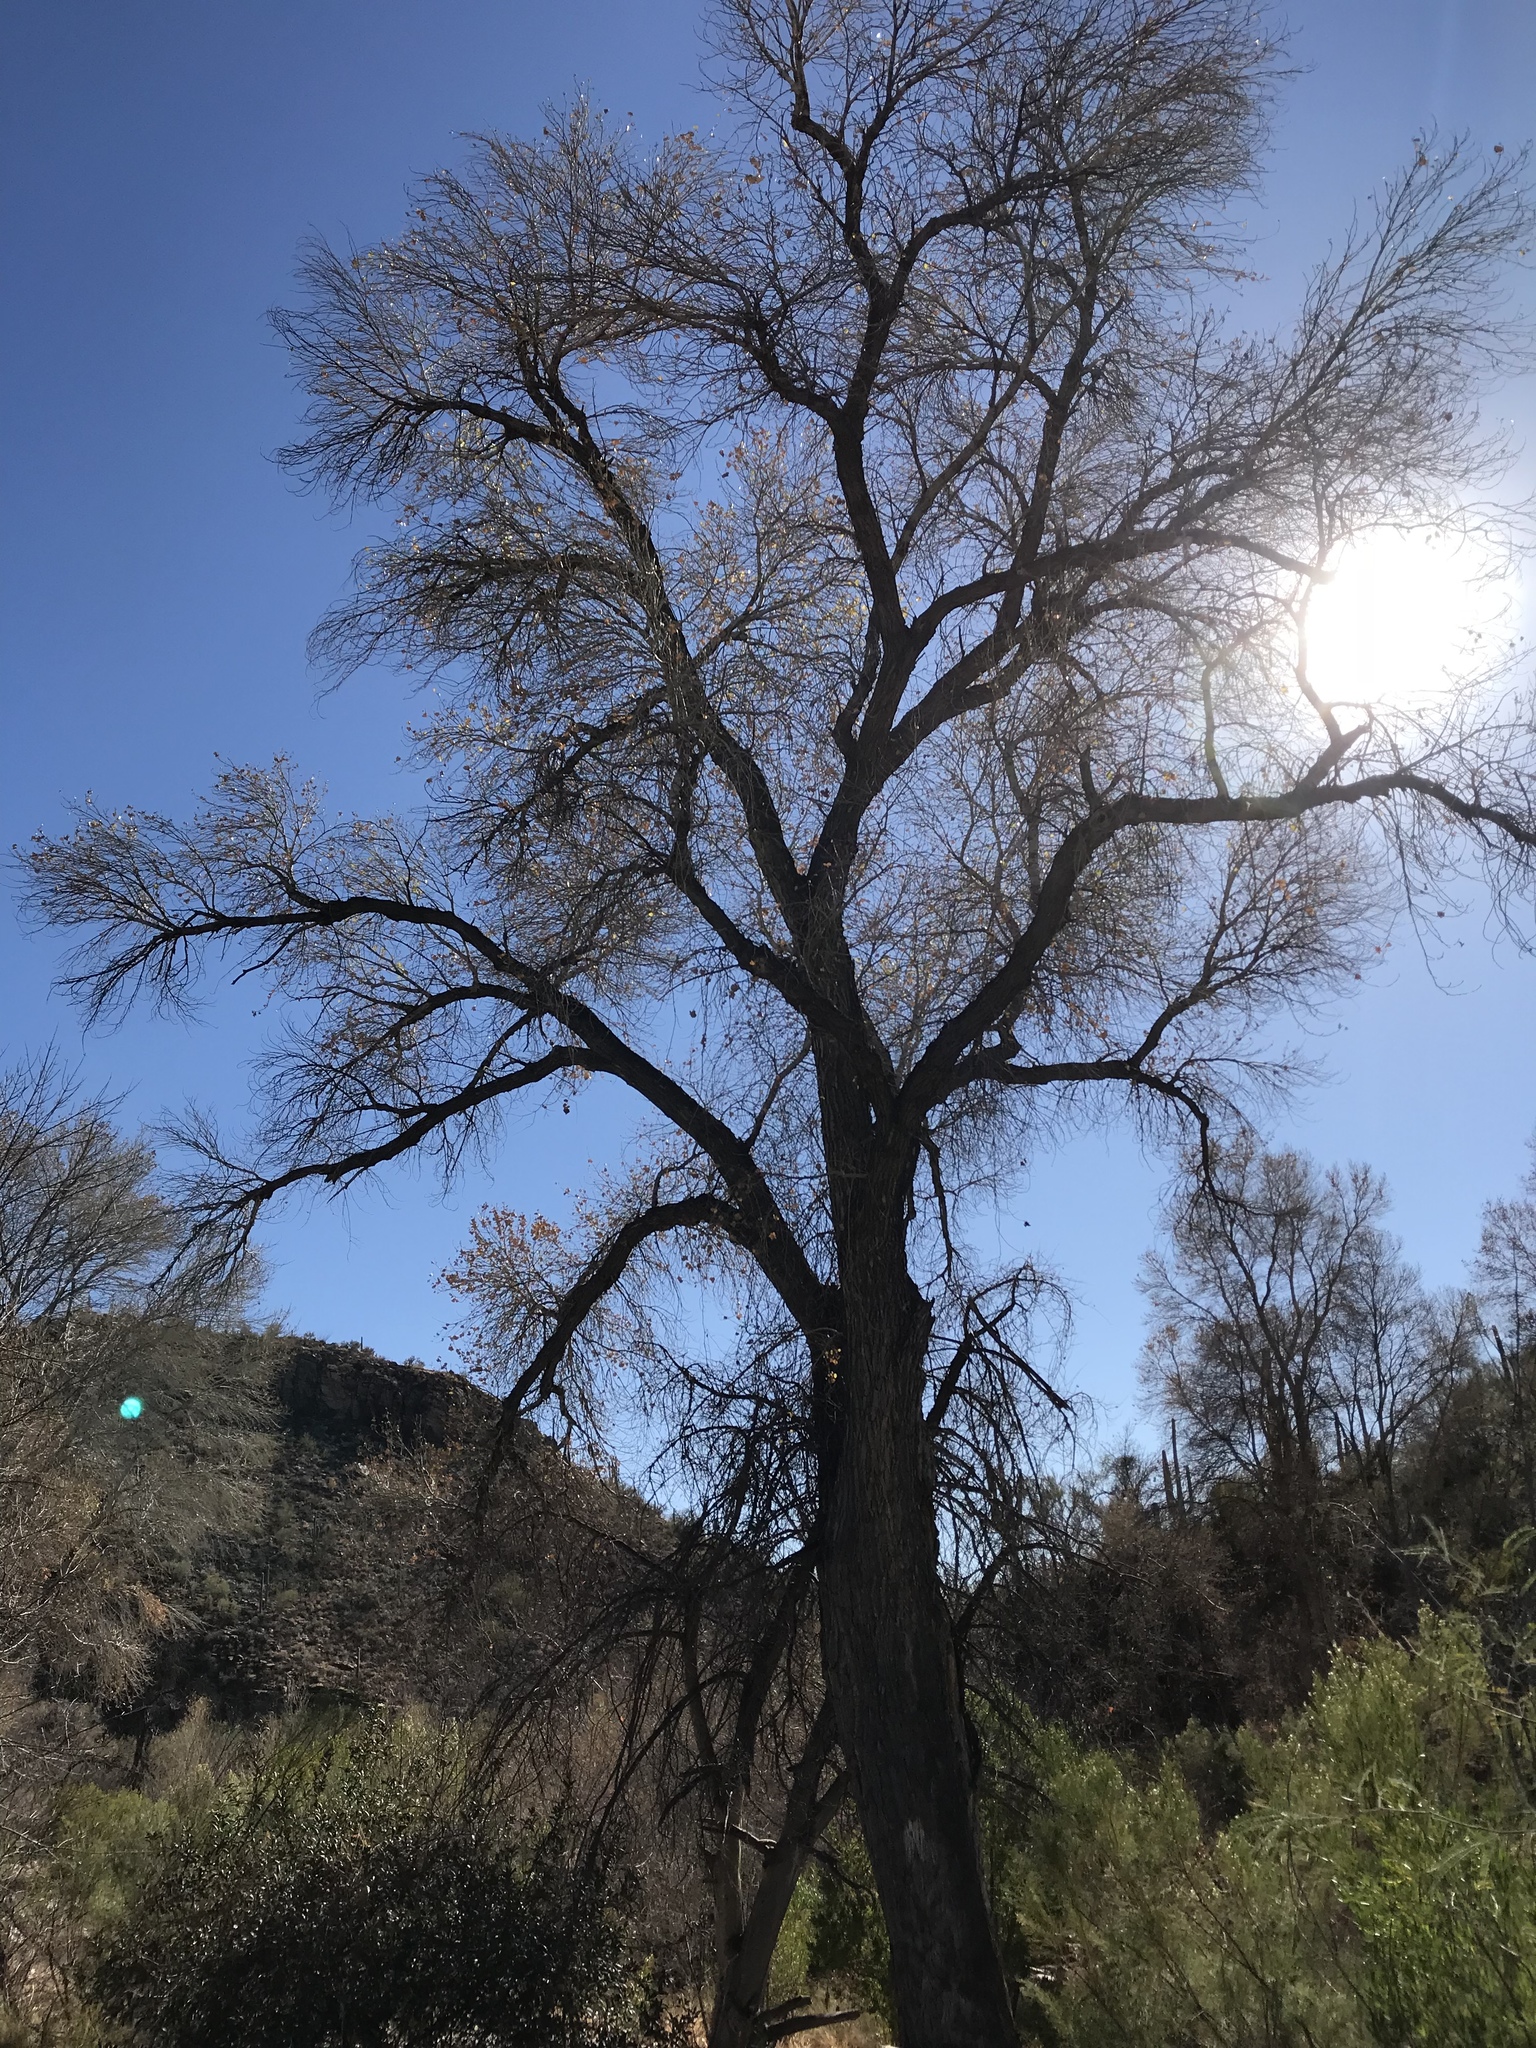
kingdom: Plantae
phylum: Tracheophyta
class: Magnoliopsida
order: Malpighiales
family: Salicaceae
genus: Populus
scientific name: Populus fremontii
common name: Fremont's cottonwood
